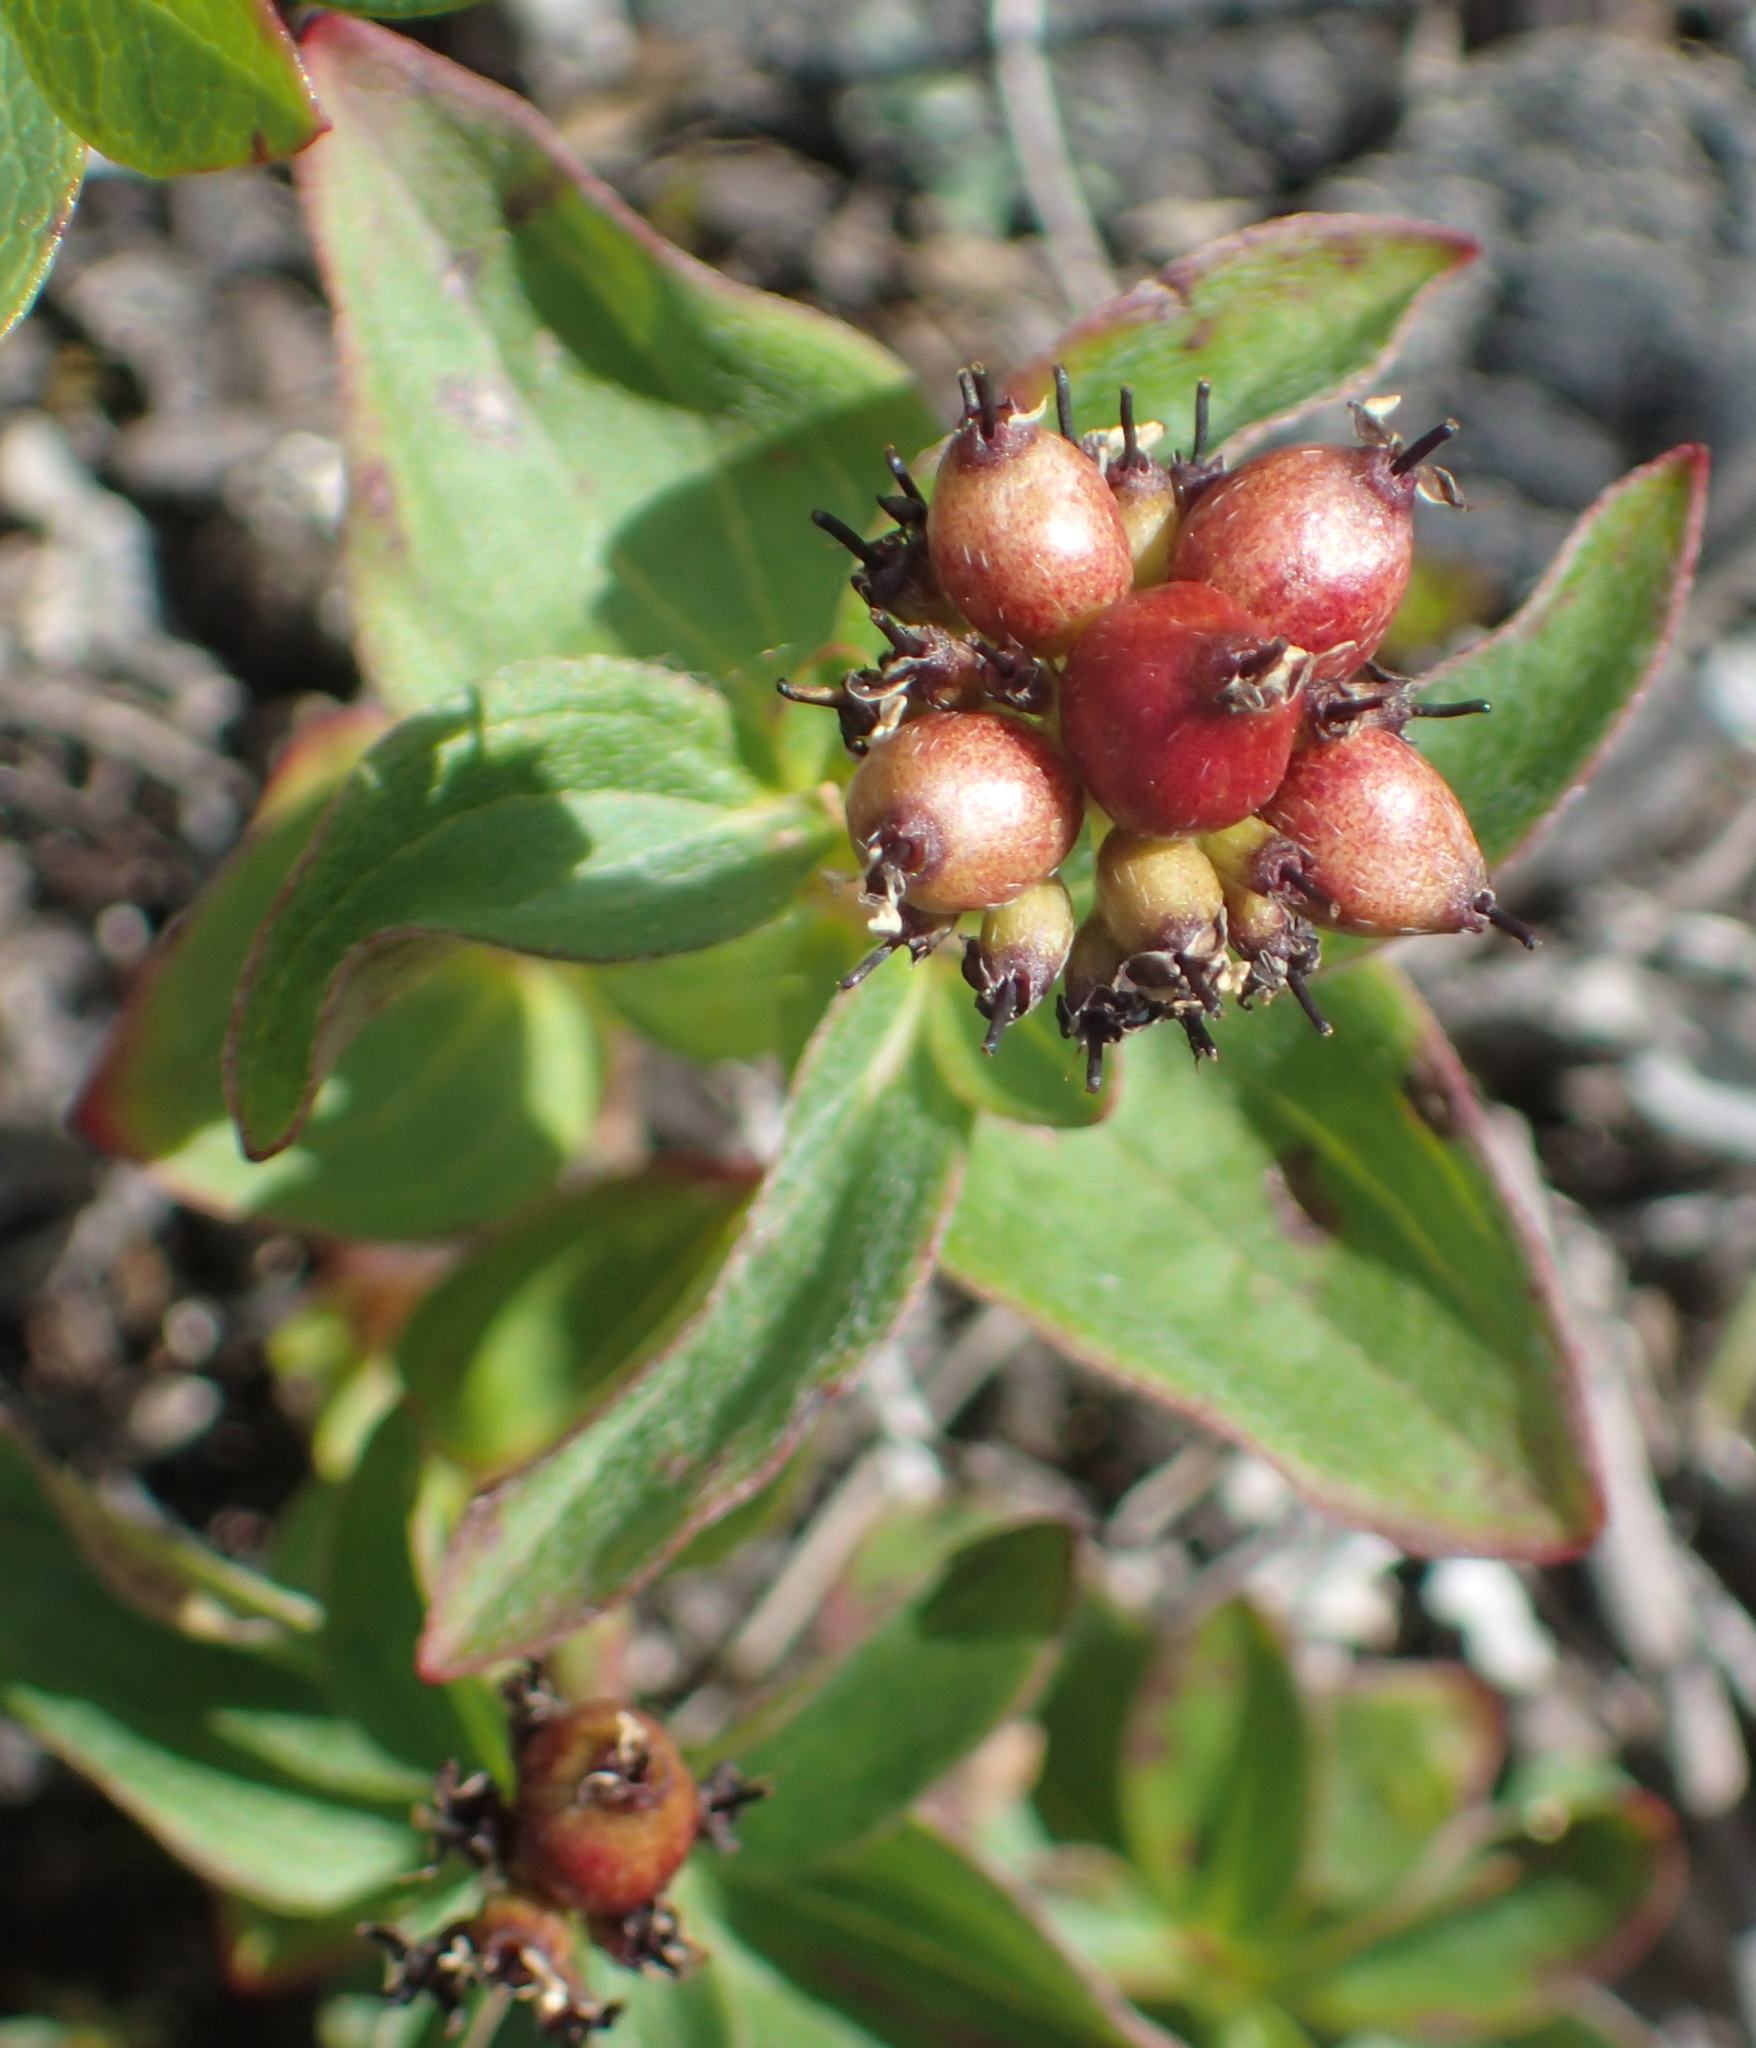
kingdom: Plantae
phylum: Tracheophyta
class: Magnoliopsida
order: Cornales
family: Cornaceae
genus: Cornus
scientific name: Cornus suecica
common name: Dwarf cornel
